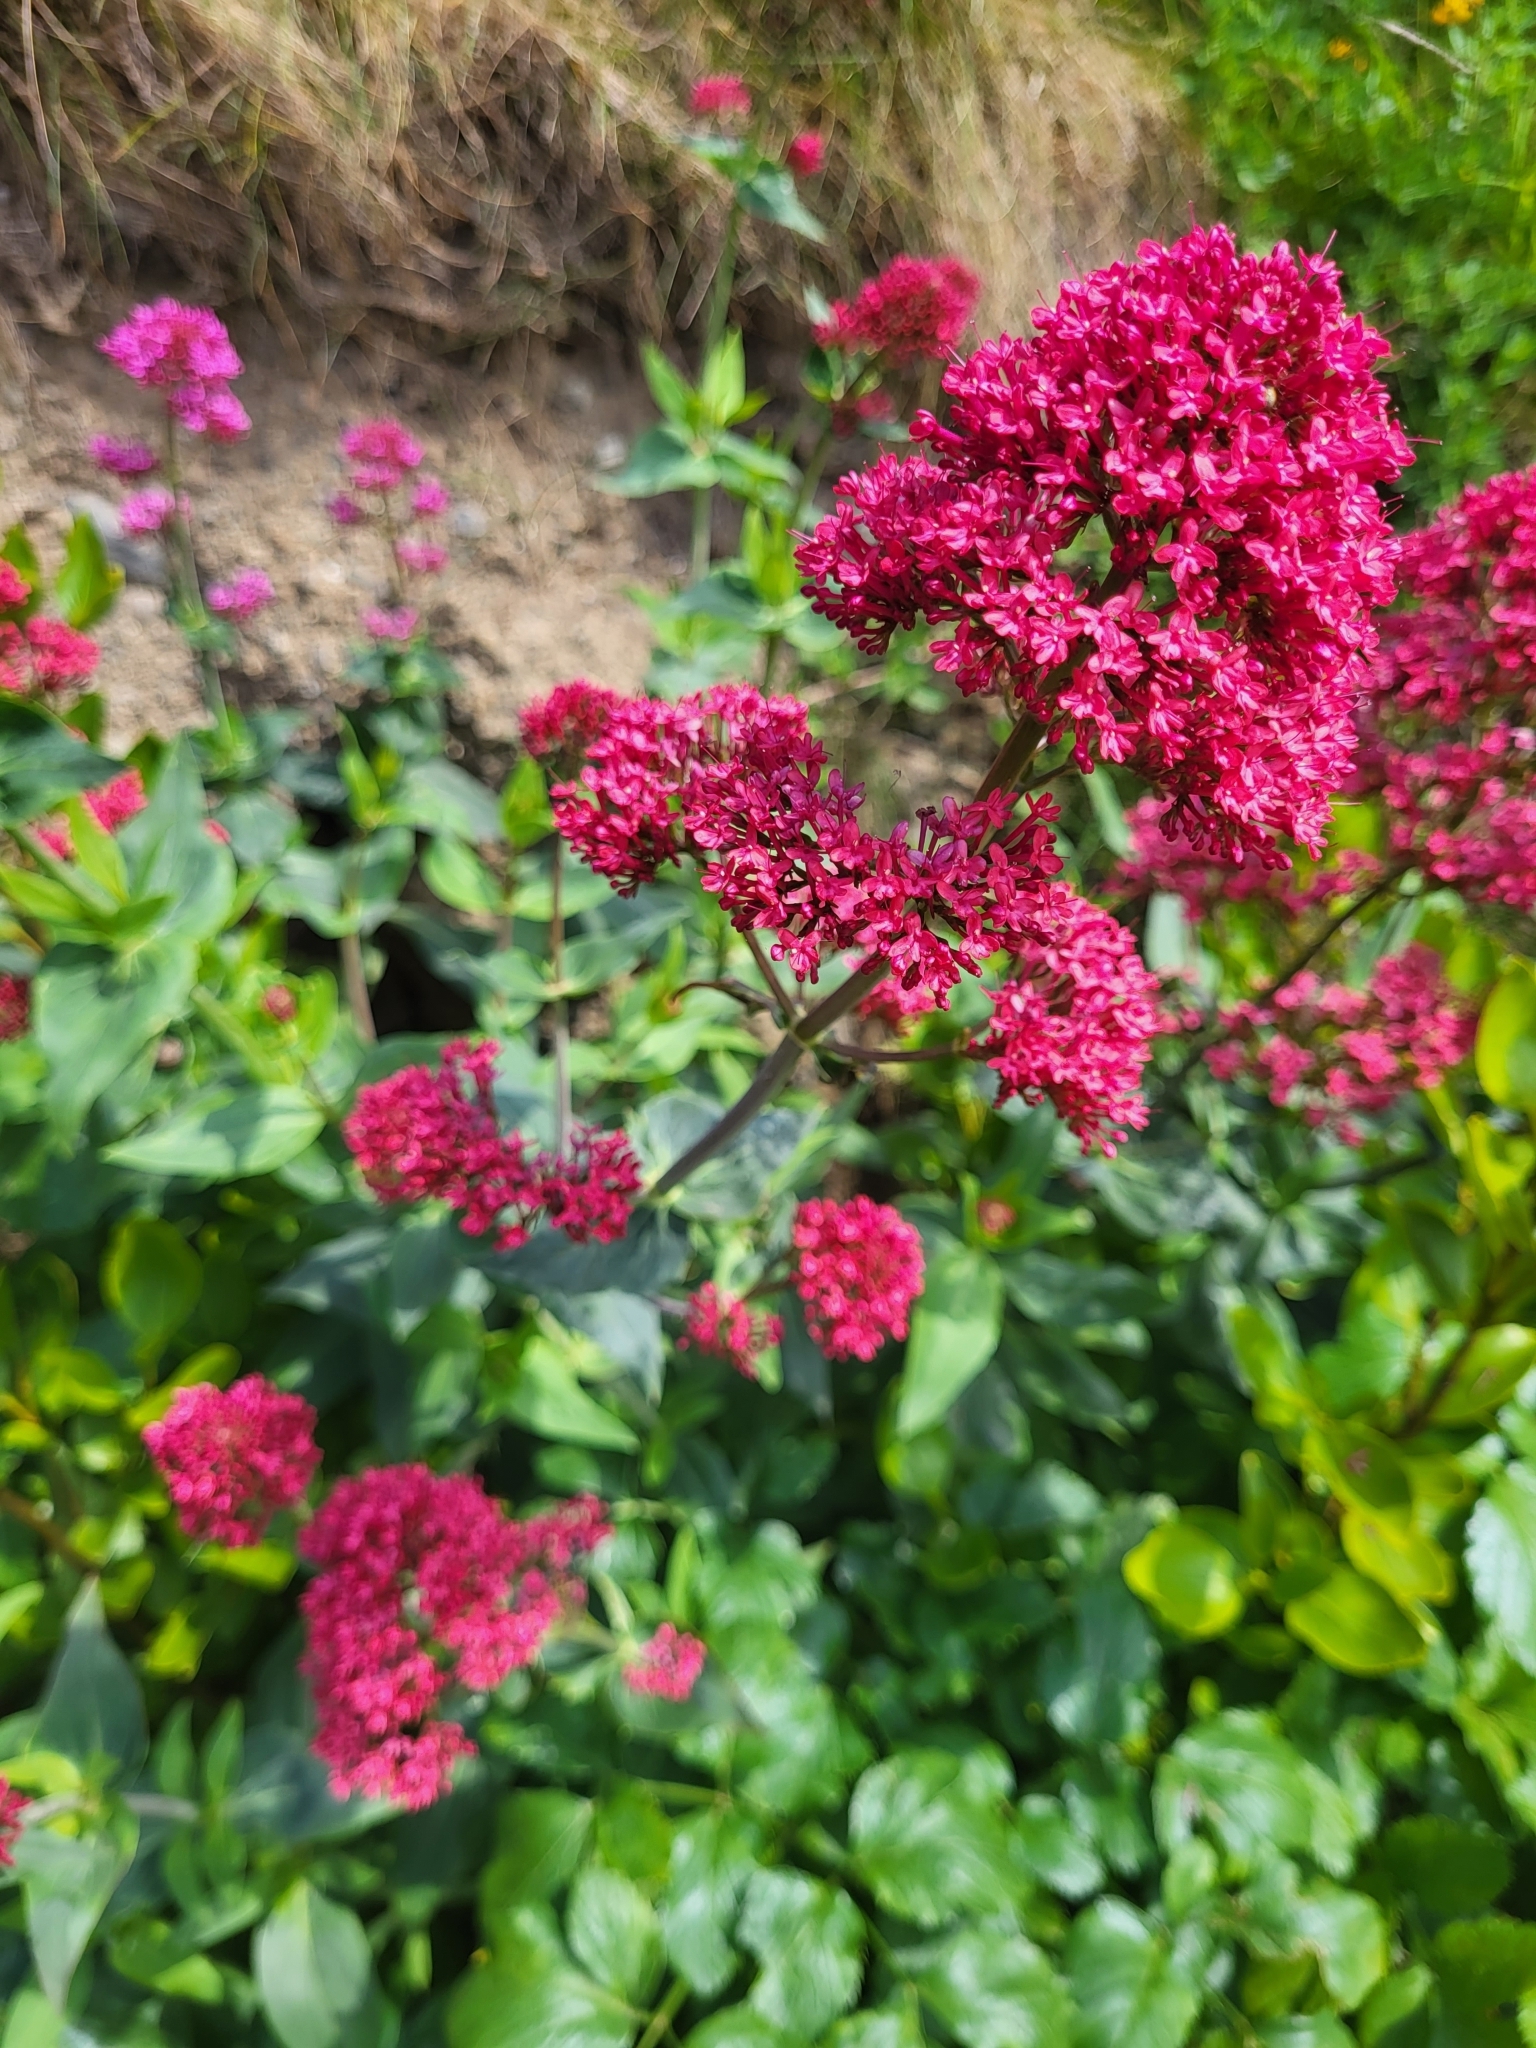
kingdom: Plantae
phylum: Tracheophyta
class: Magnoliopsida
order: Dipsacales
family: Caprifoliaceae
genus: Centranthus
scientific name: Centranthus ruber
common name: Red valerian
